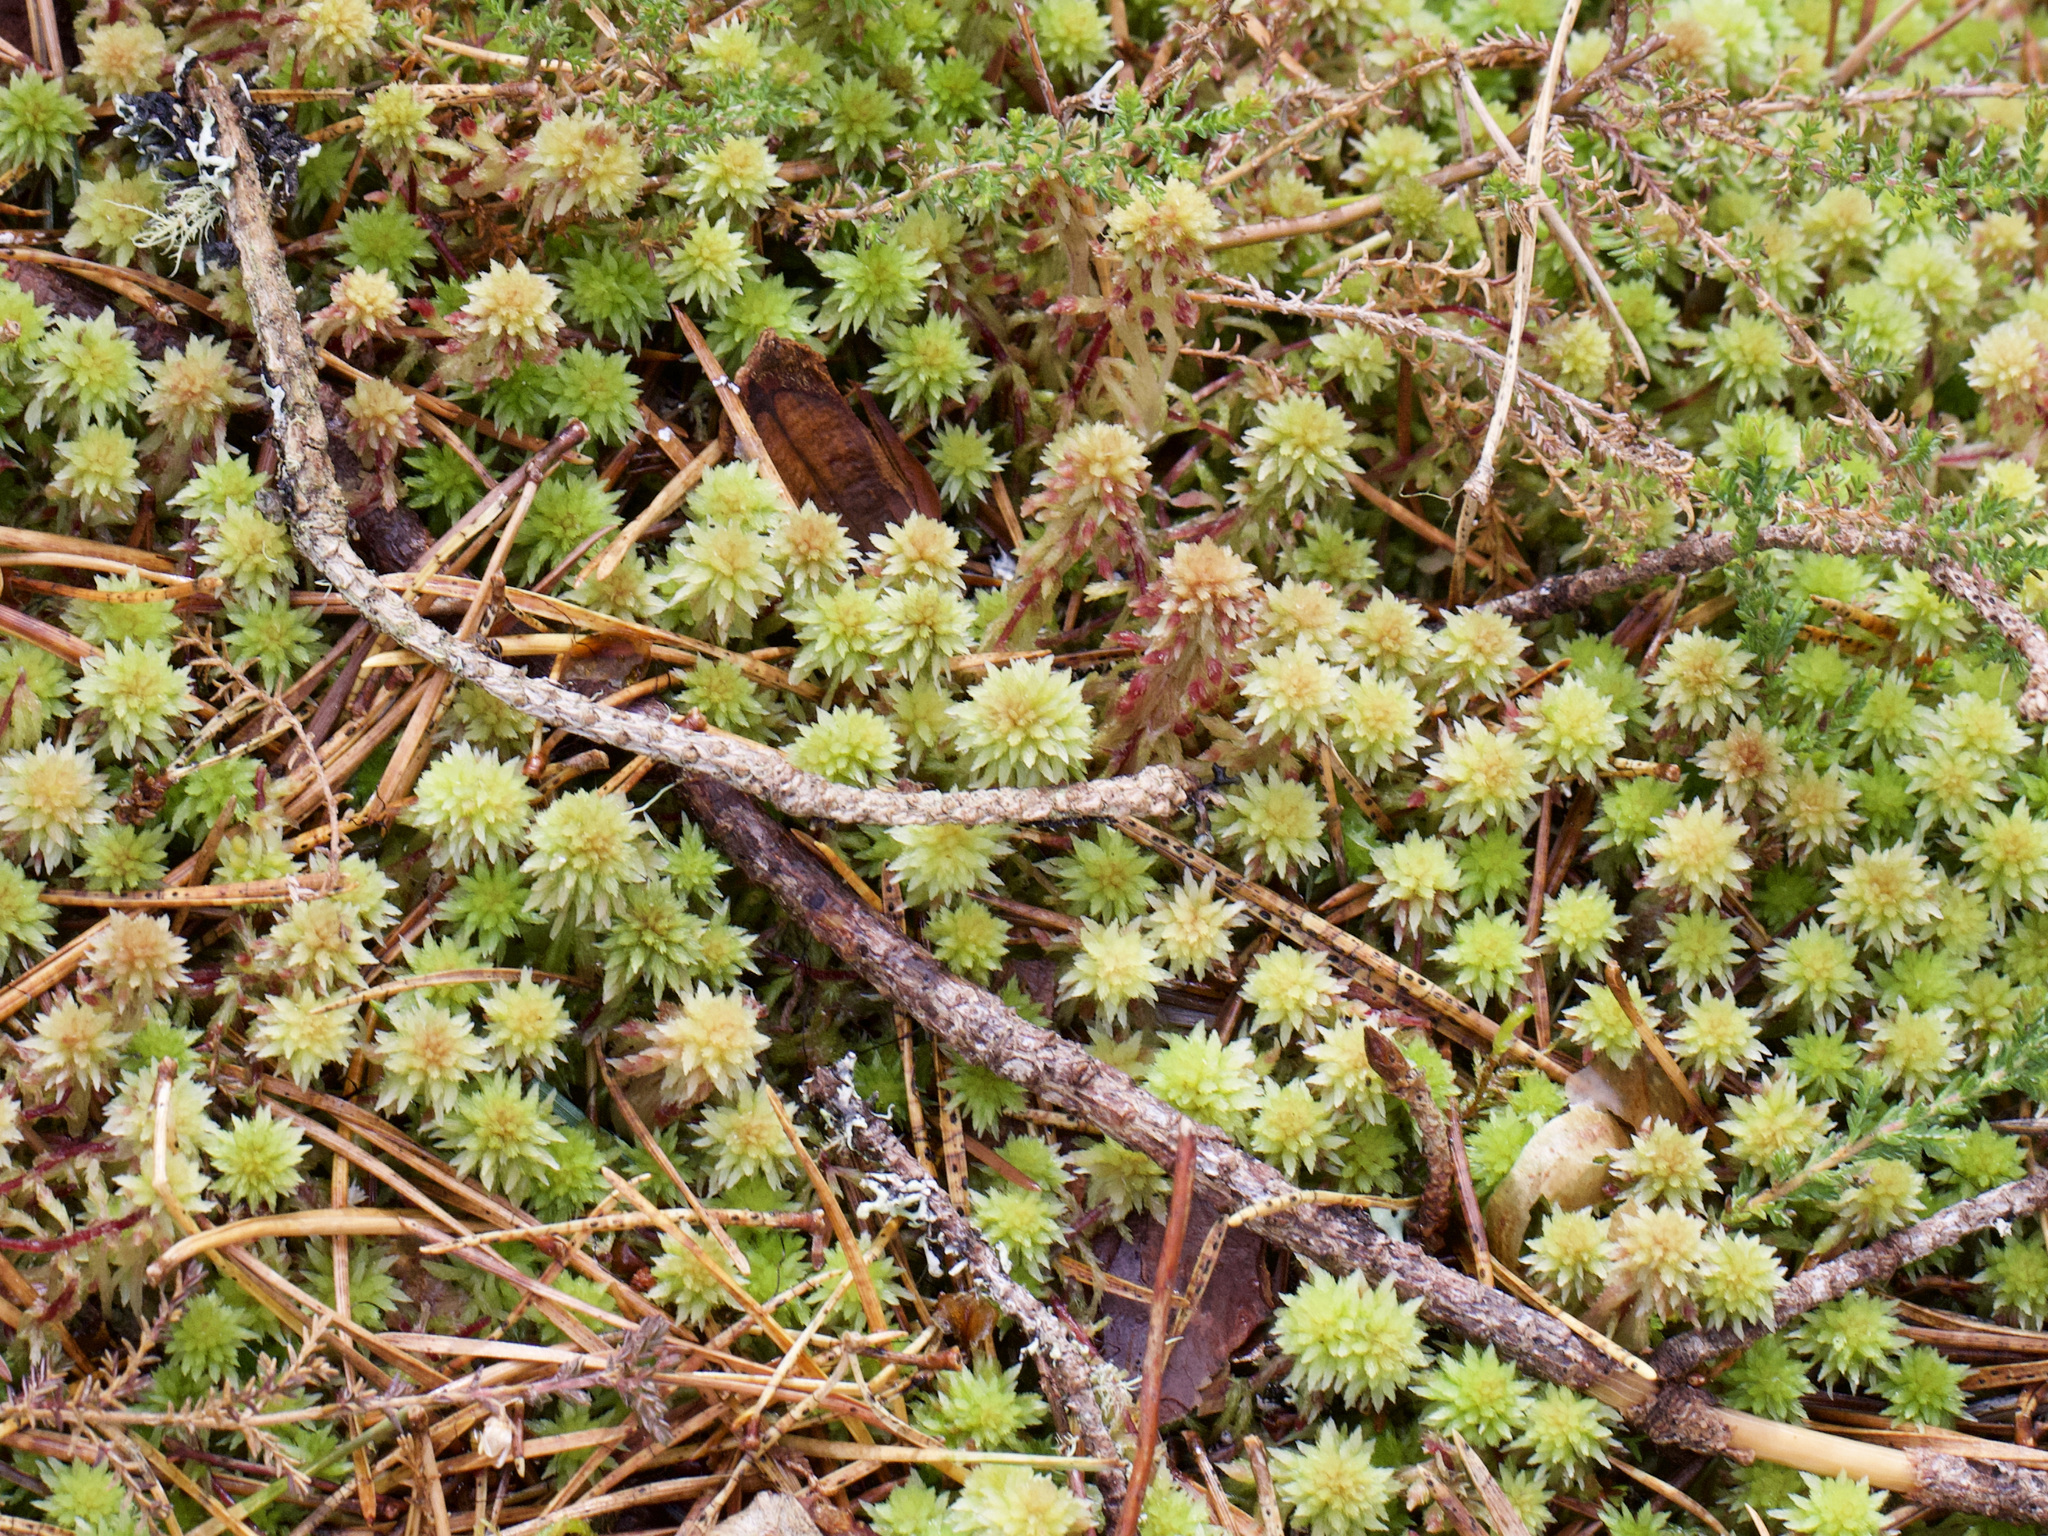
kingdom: Plantae
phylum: Bryophyta
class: Sphagnopsida
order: Sphagnales
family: Sphagnaceae
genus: Sphagnum
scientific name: Sphagnum capillifolium
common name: Small red peat moss
